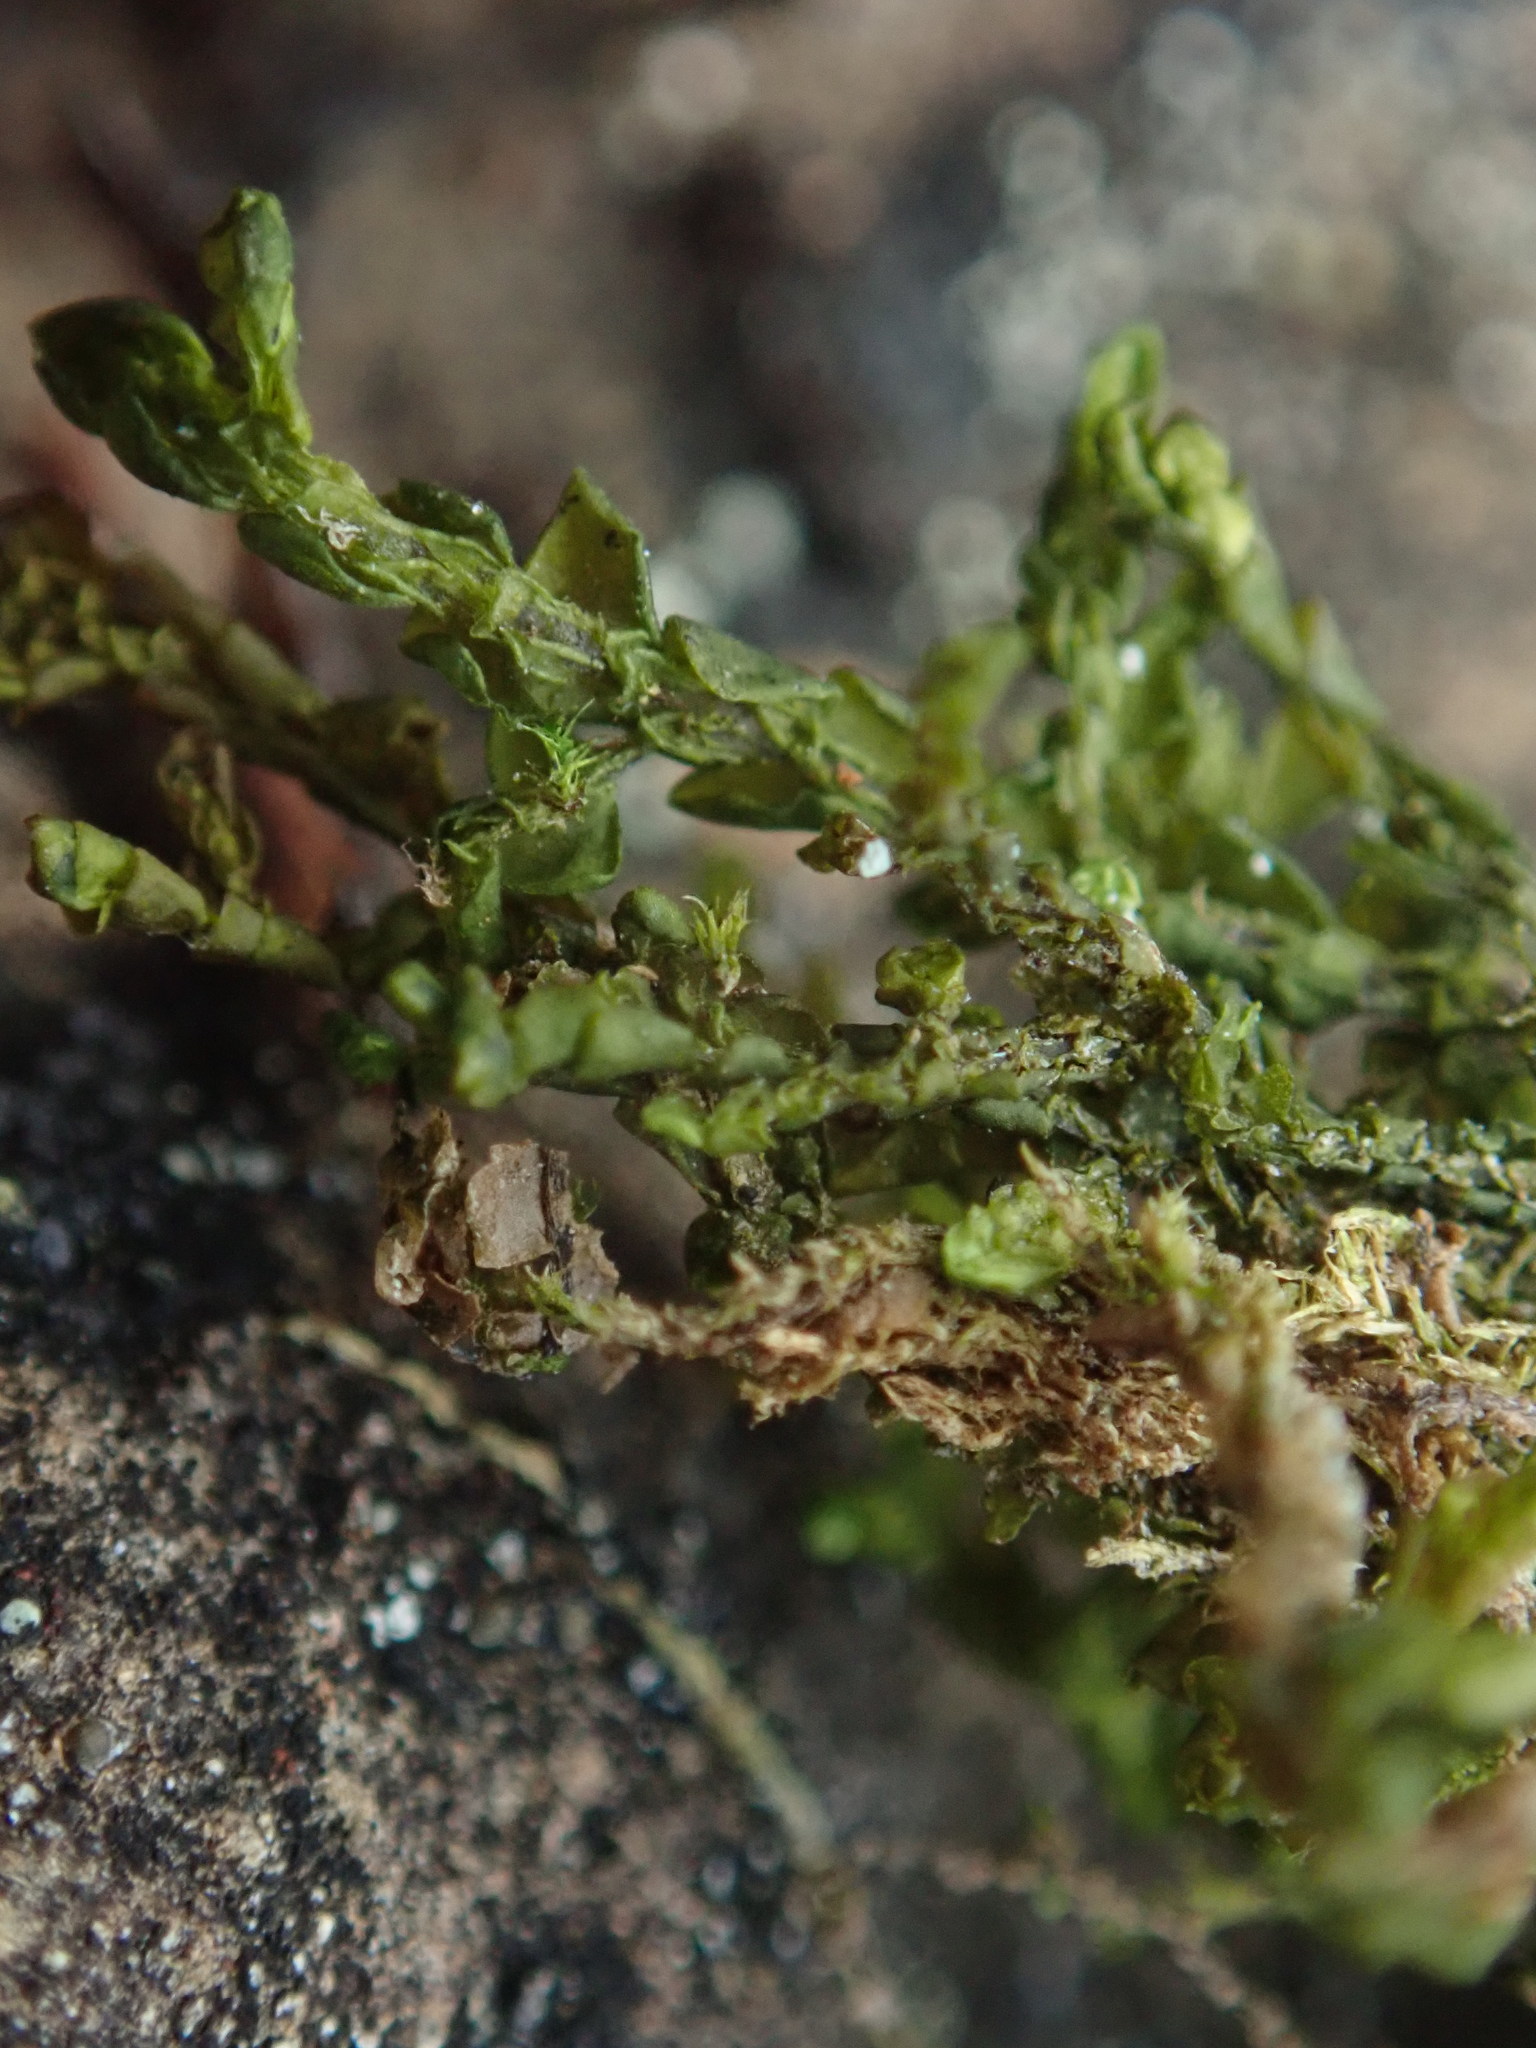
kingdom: Plantae
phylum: Marchantiophyta
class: Jungermanniopsida
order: Porellales
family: Porellaceae
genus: Porella
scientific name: Porella cordaeana
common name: Cliff scalewort
